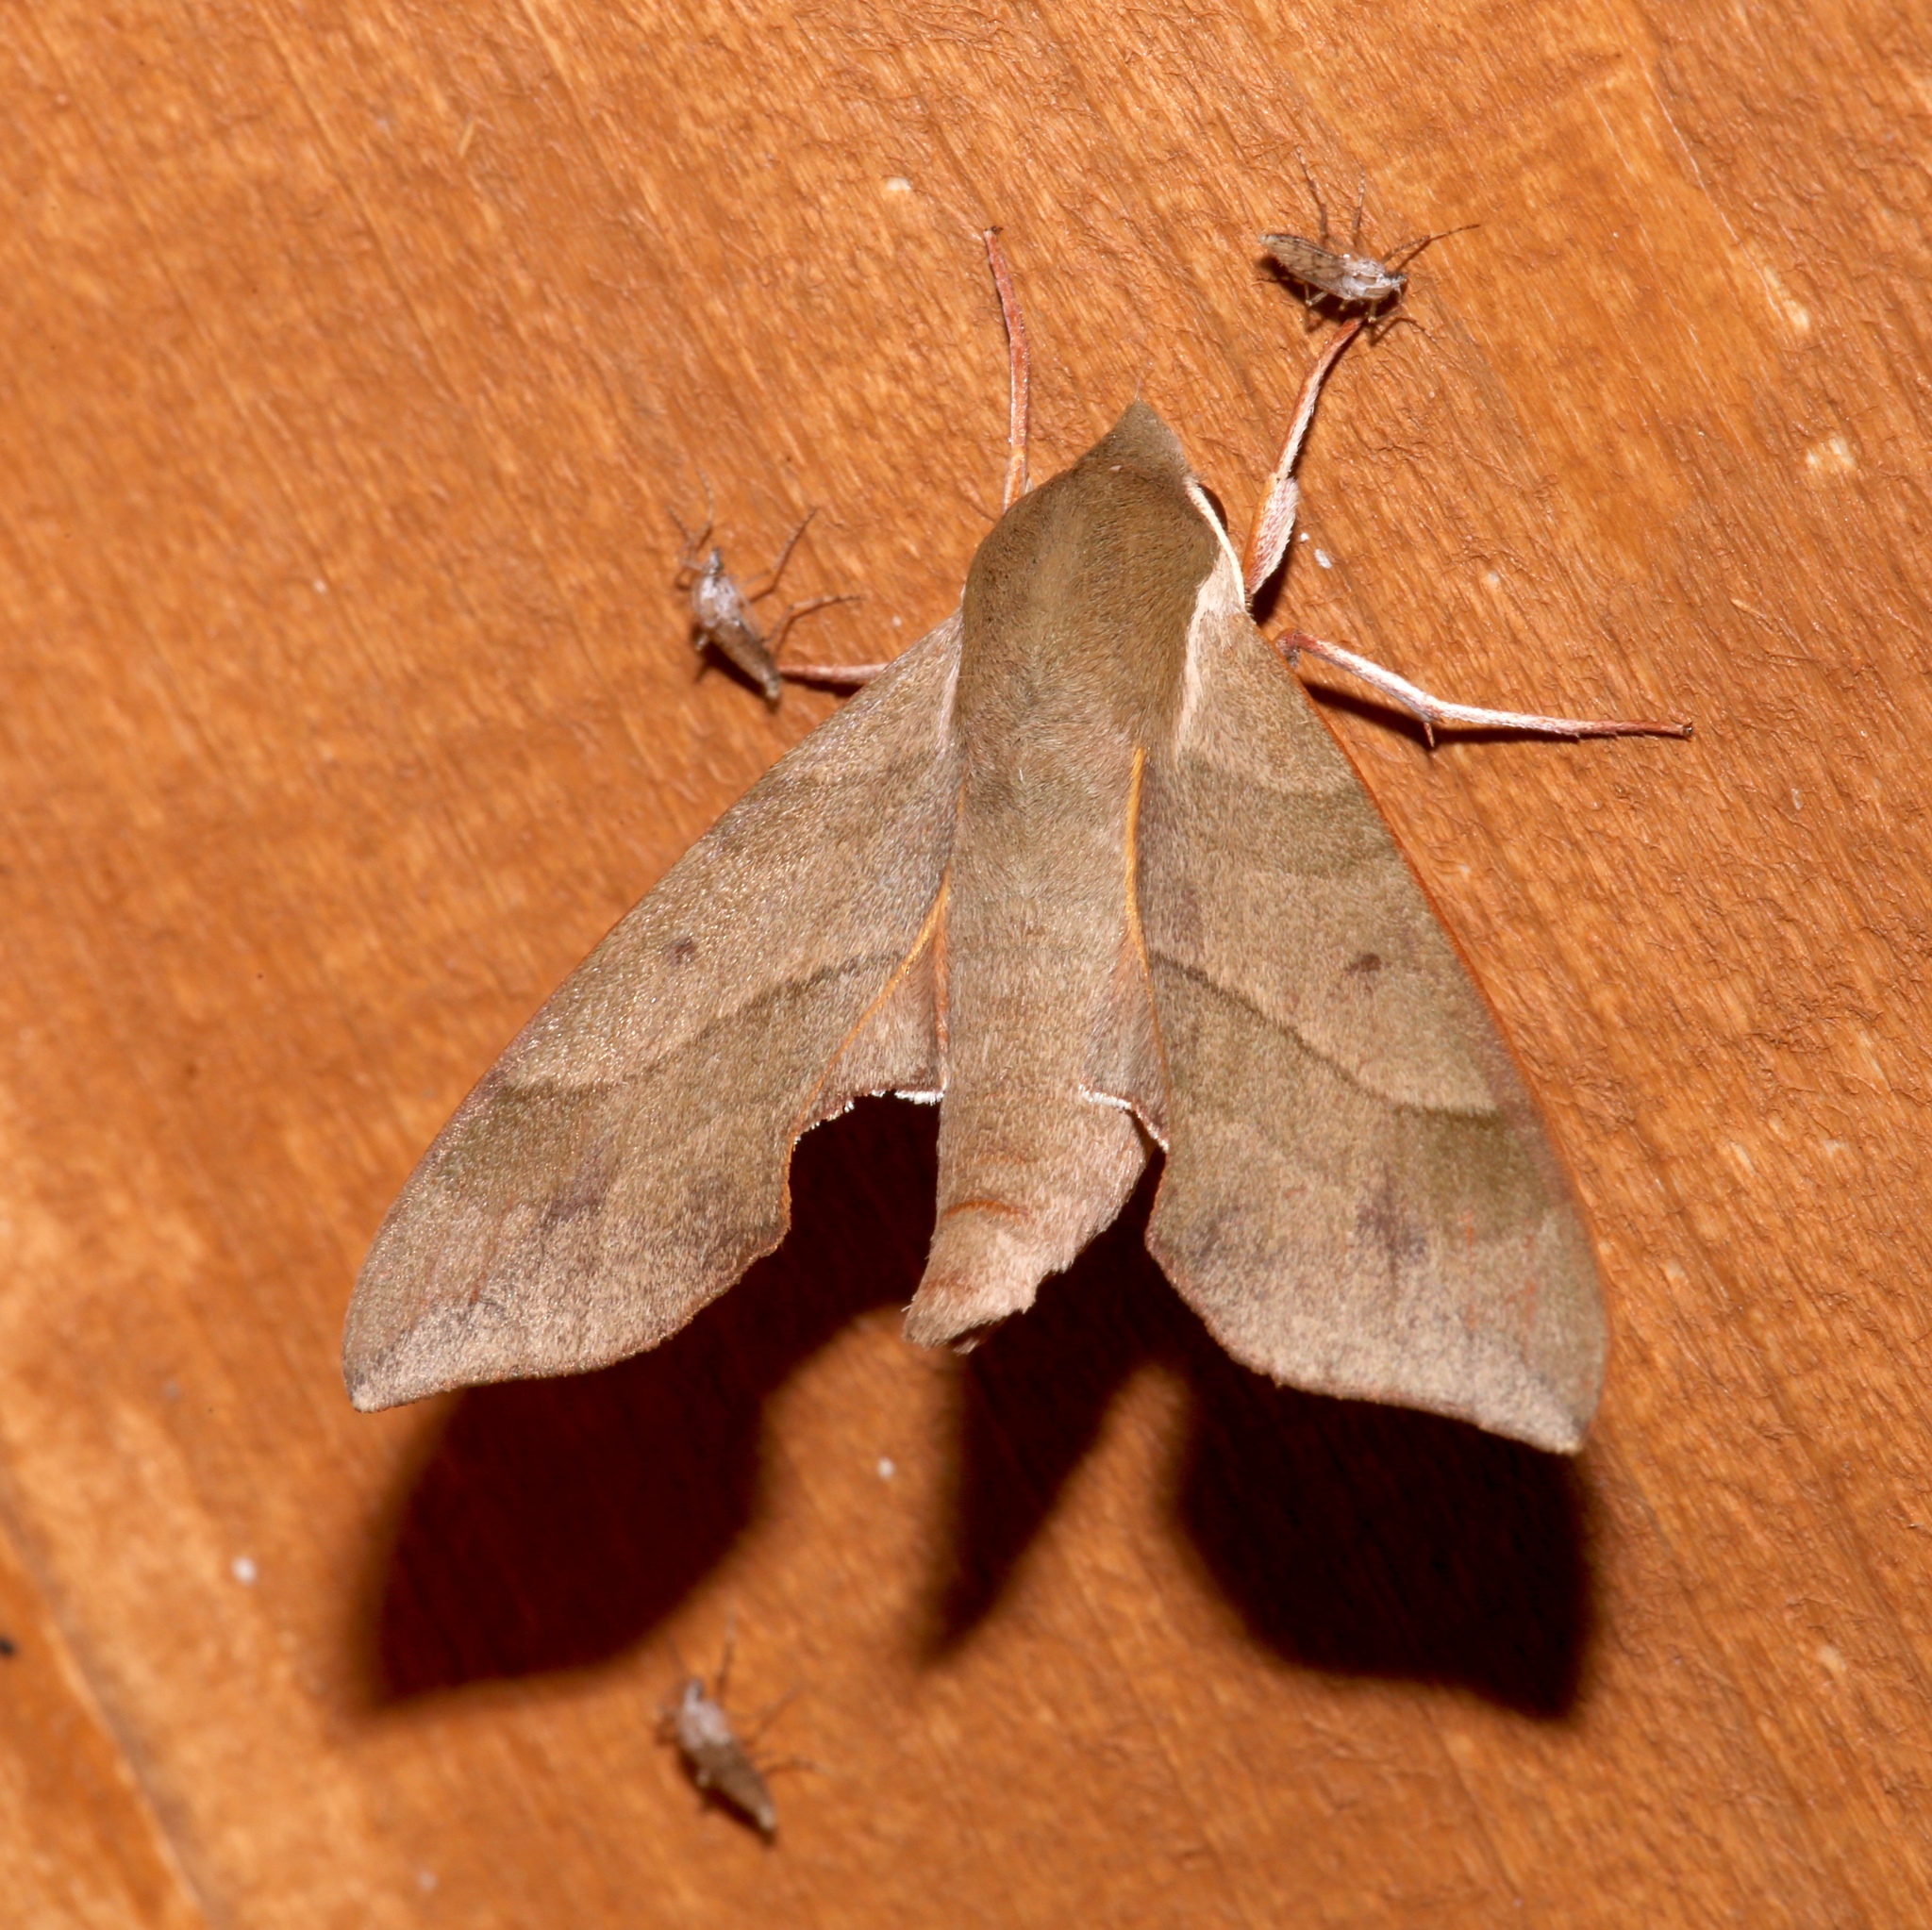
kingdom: Animalia
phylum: Arthropoda
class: Insecta
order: Lepidoptera
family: Sphingidae
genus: Darapsa
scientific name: Darapsa myron
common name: Hog sphinx
